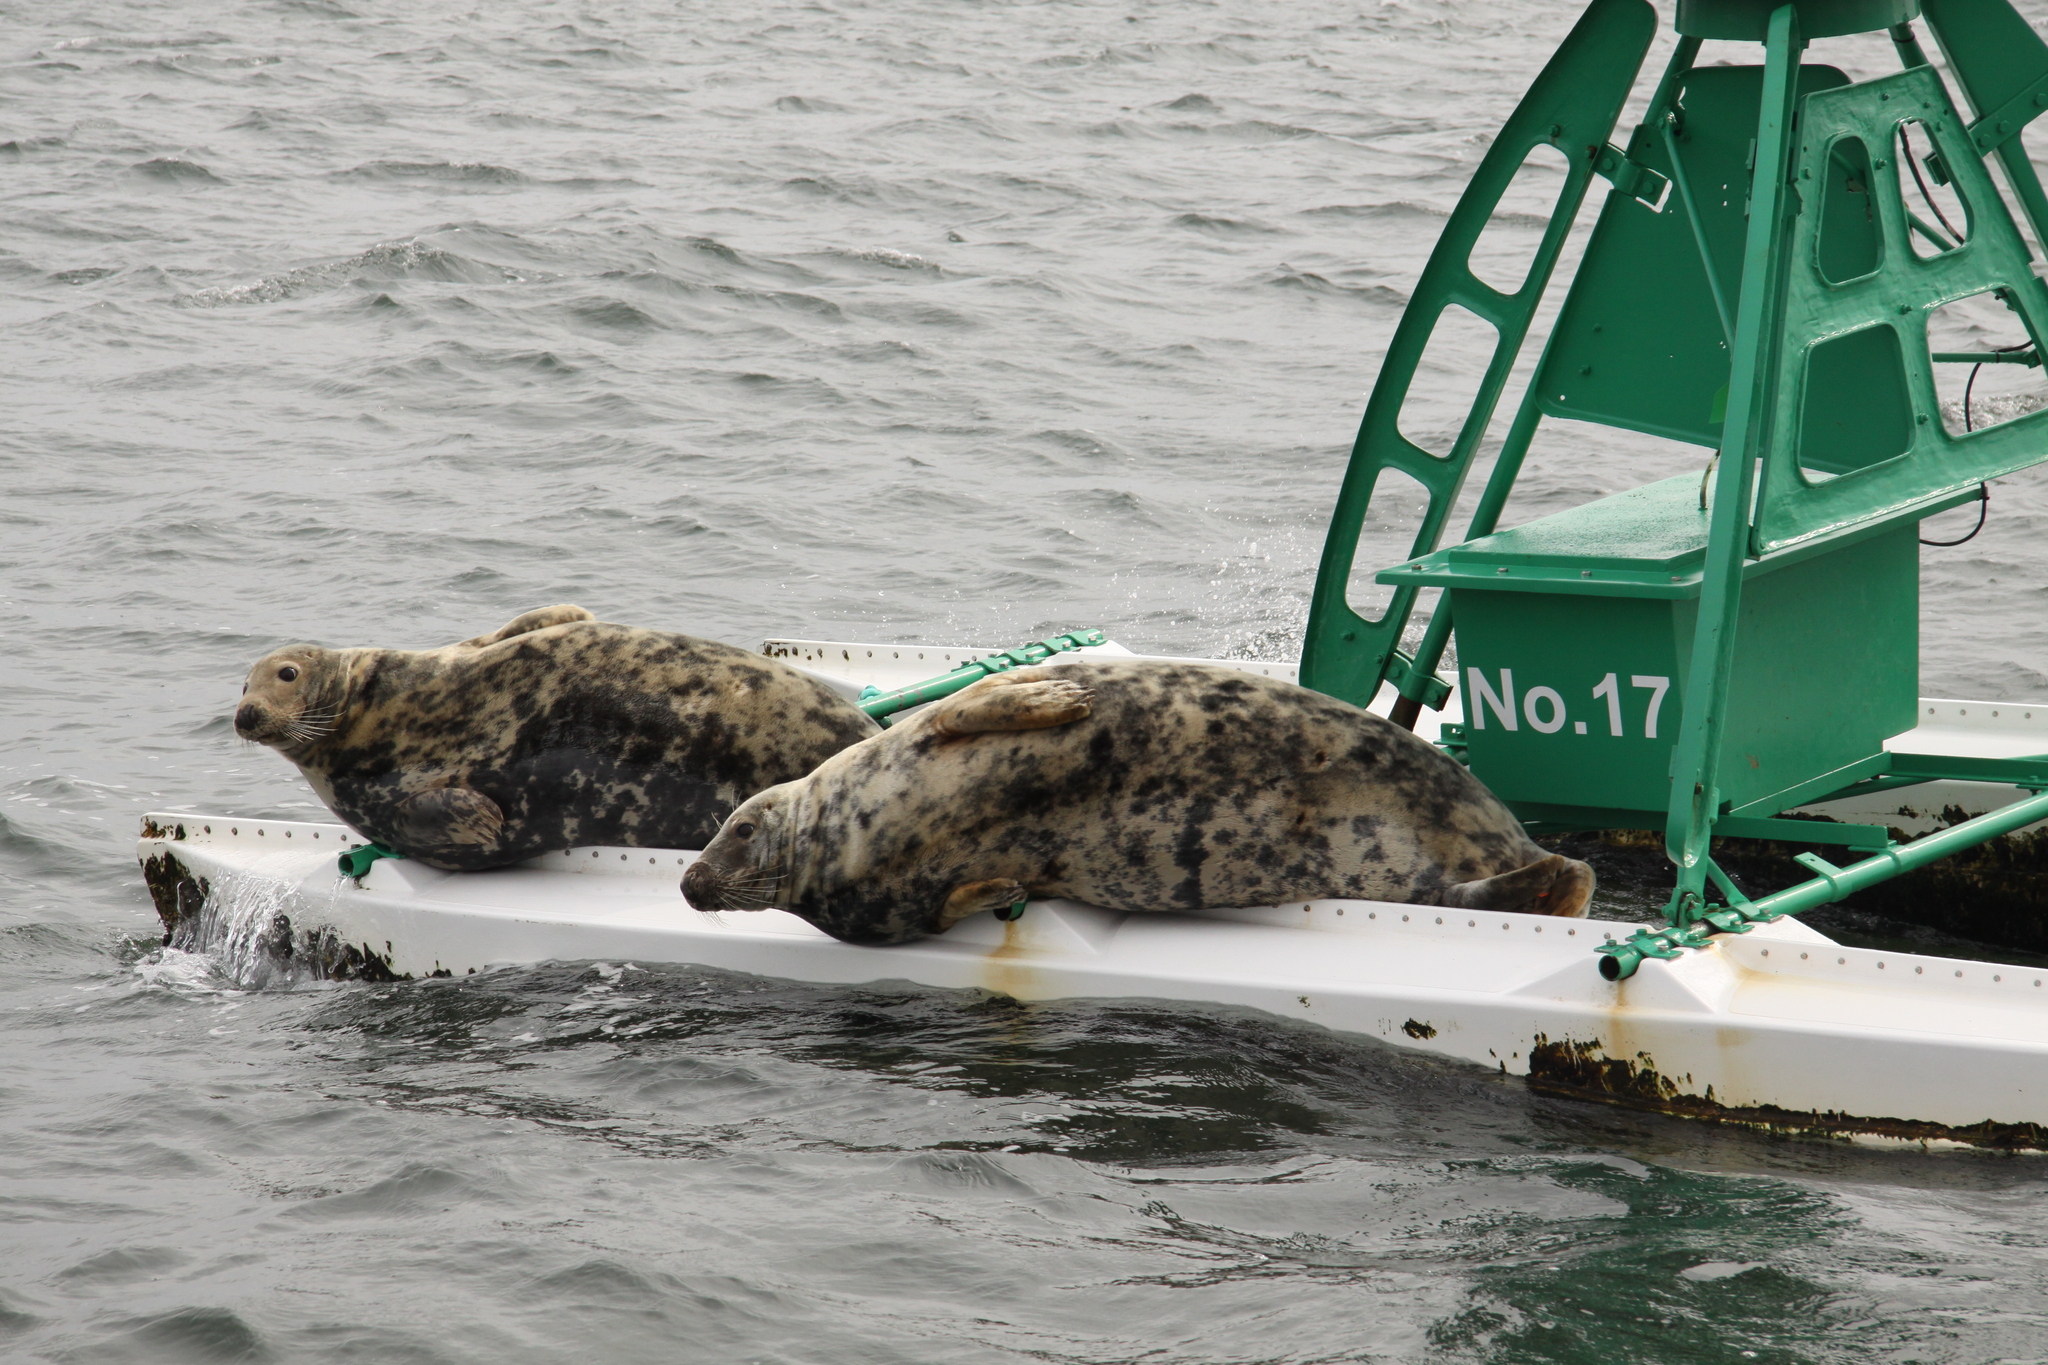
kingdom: Animalia
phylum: Chordata
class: Mammalia
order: Carnivora
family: Phocidae
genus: Halichoerus
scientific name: Halichoerus grypus
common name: Grey seal
